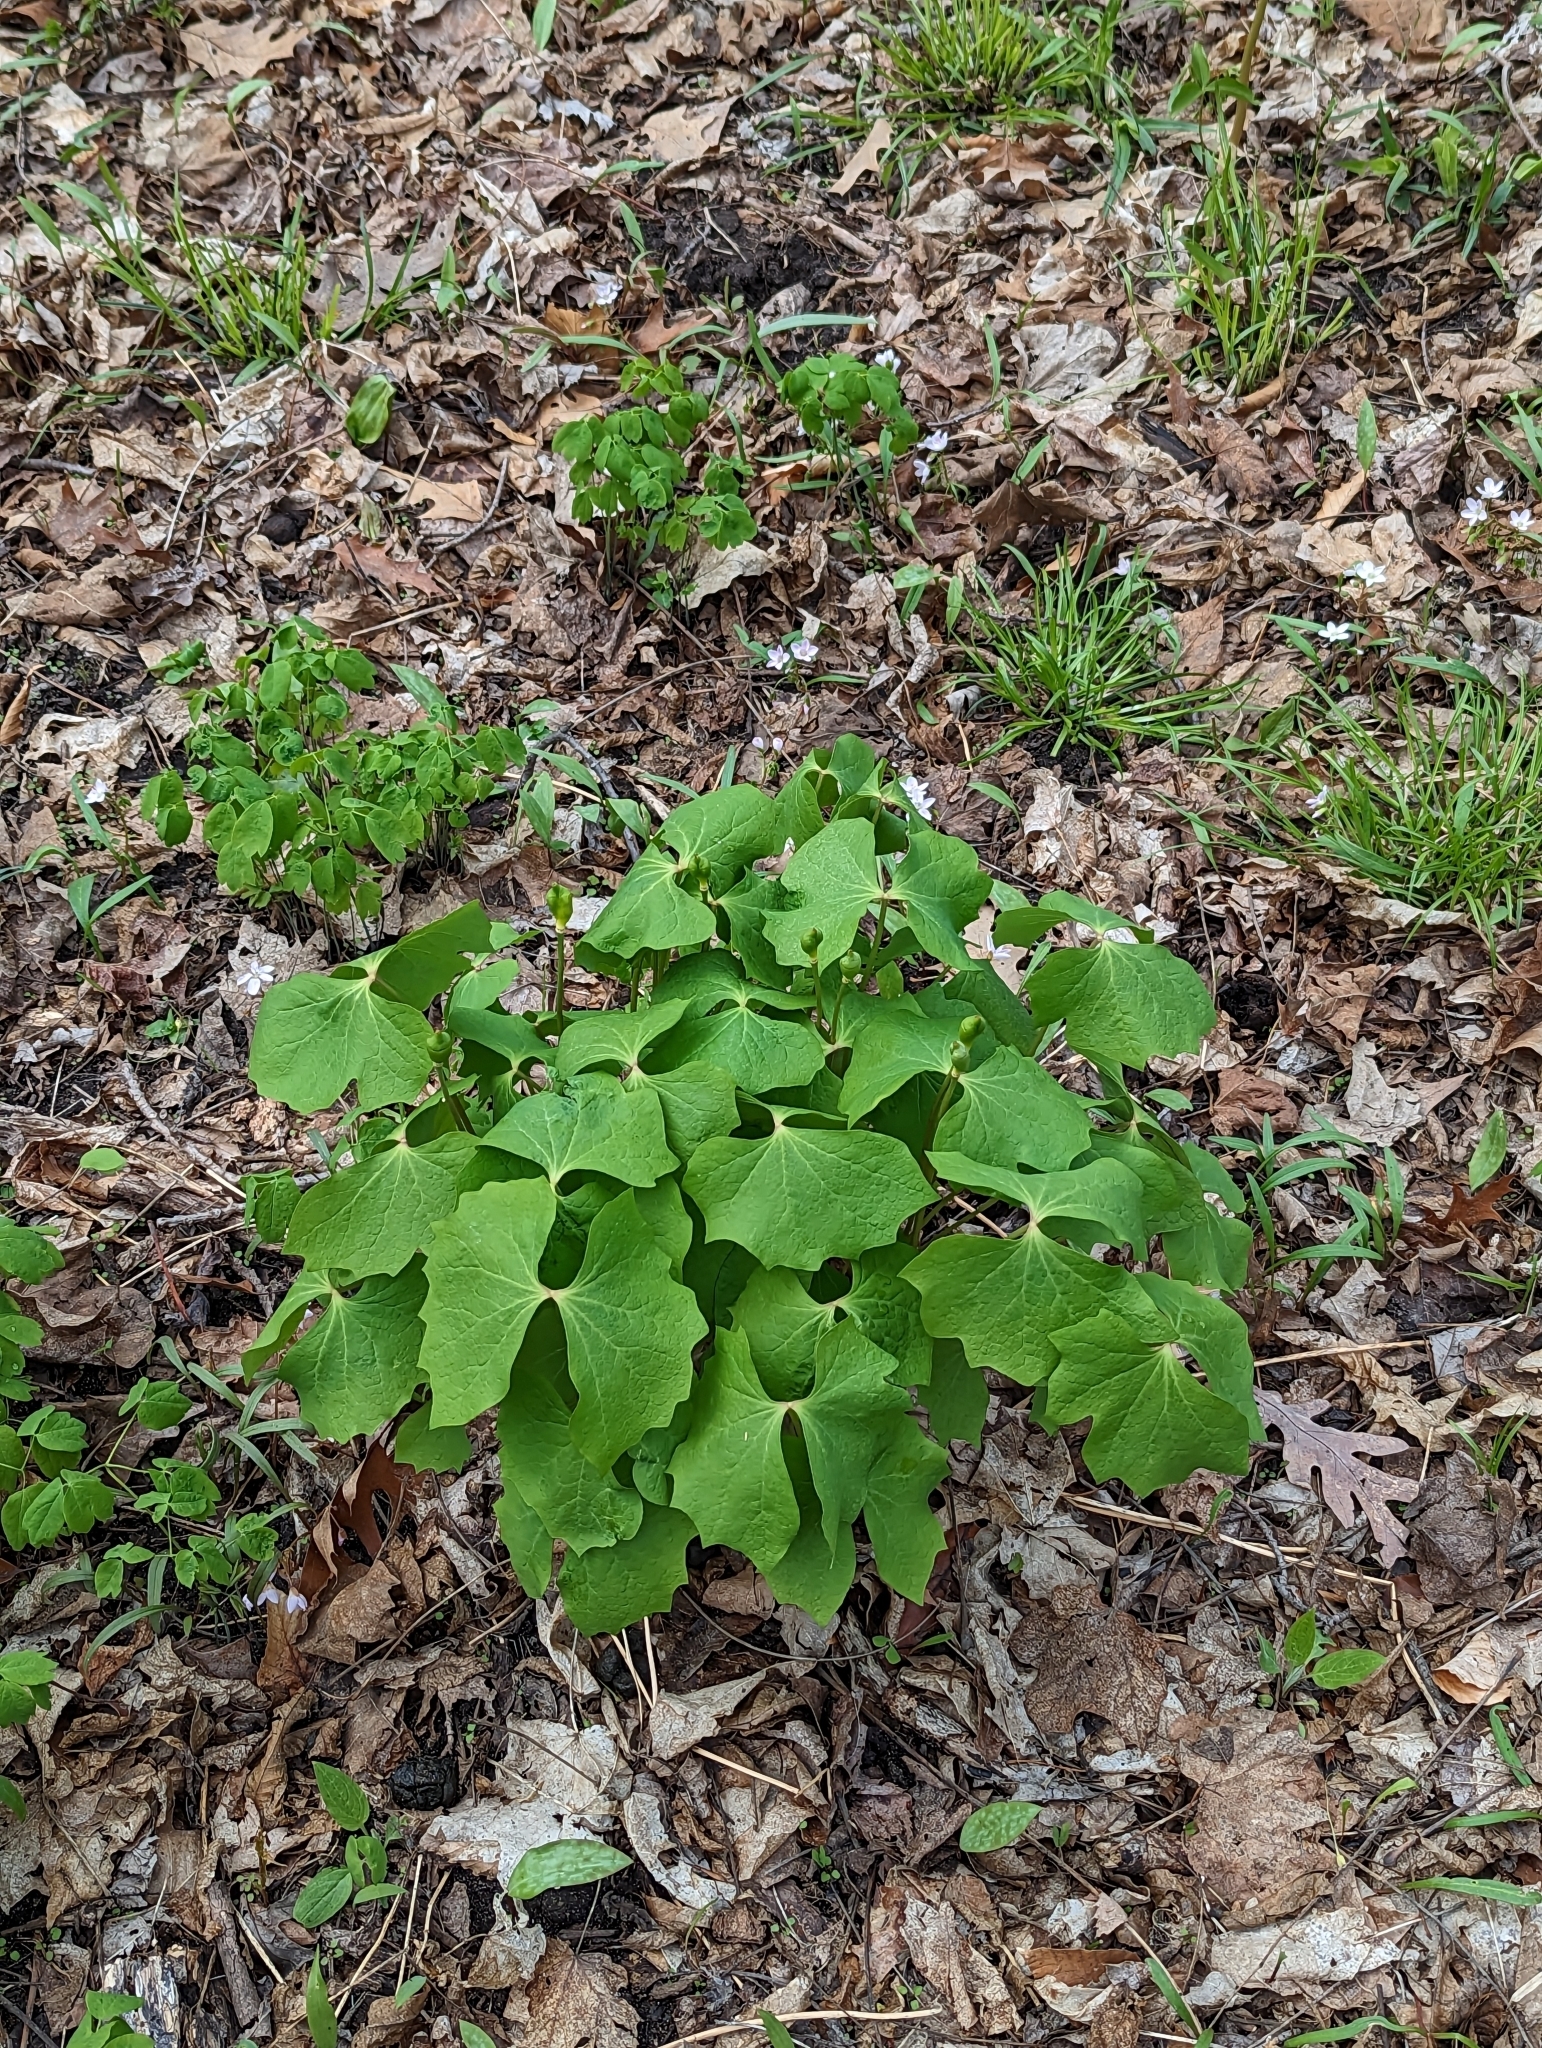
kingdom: Plantae
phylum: Tracheophyta
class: Magnoliopsida
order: Ranunculales
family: Berberidaceae
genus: Jeffersonia
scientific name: Jeffersonia diphylla
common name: Rheumatism-root
